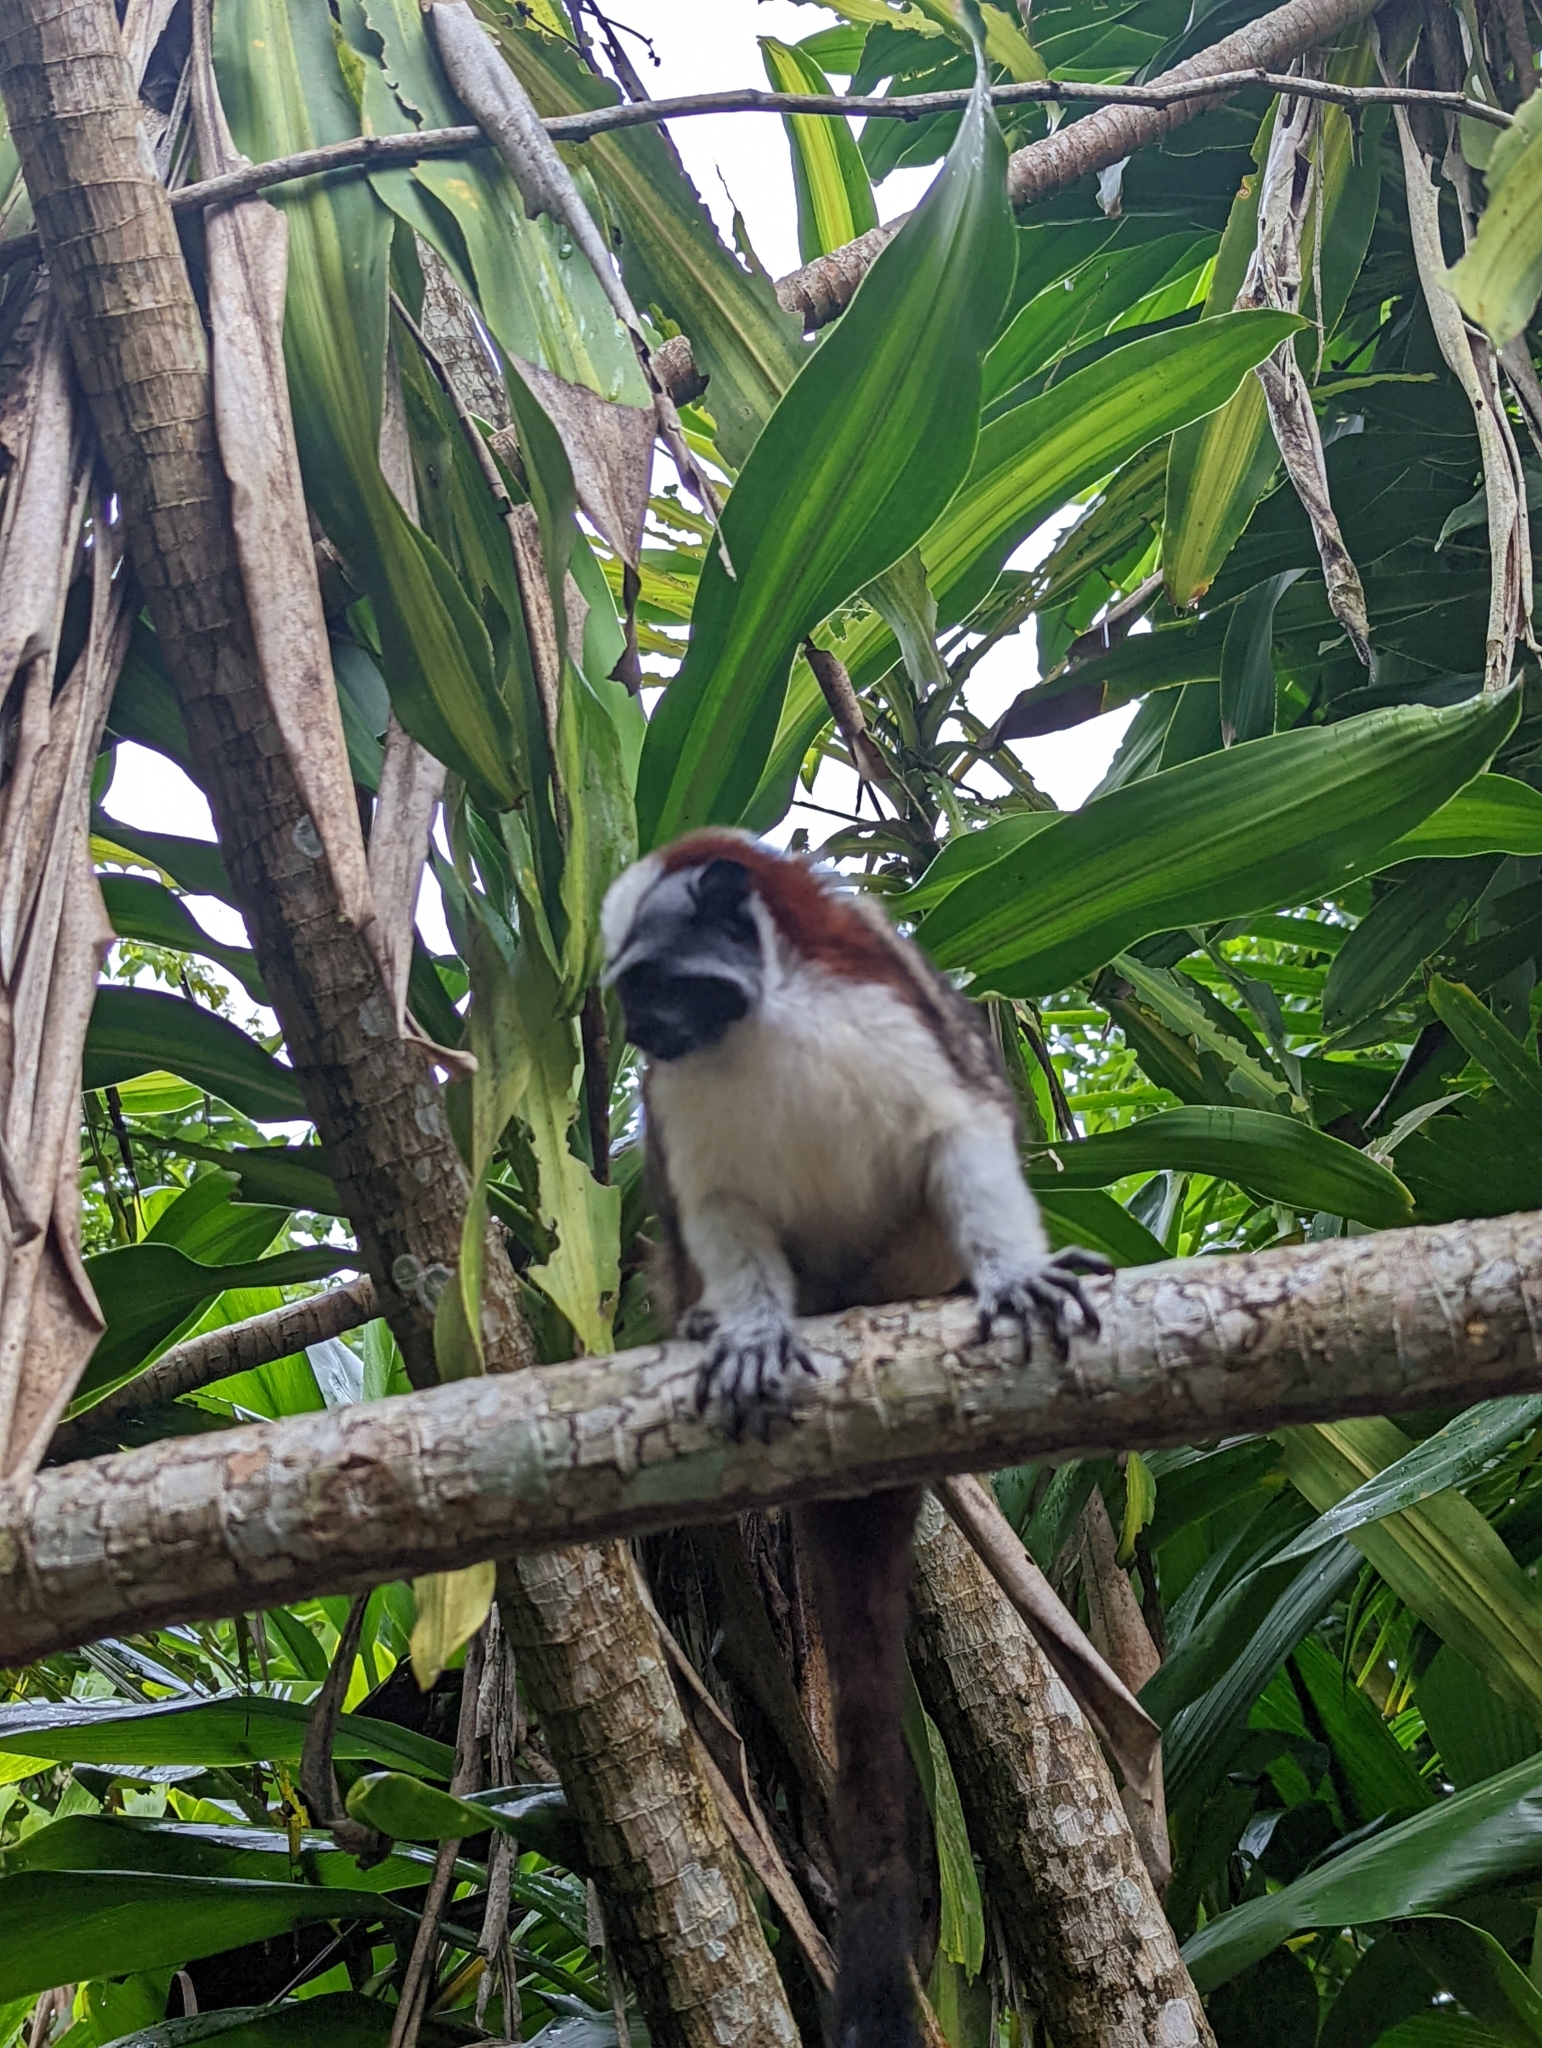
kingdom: Animalia
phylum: Chordata
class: Mammalia
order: Primates
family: Callitrichidae
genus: Saguinus
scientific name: Saguinus geoffroyi
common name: Geoffroy s tamarin
